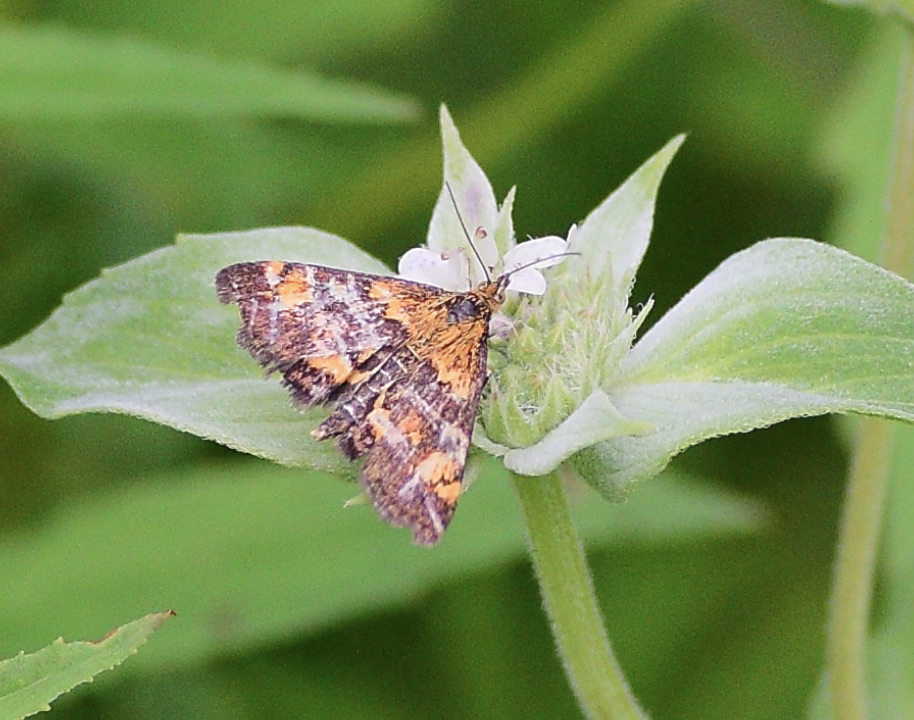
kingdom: Animalia
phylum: Arthropoda
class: Insecta
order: Lepidoptera
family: Crambidae
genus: Pyrausta
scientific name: Pyrausta orphisalis
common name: Orange mint moth
